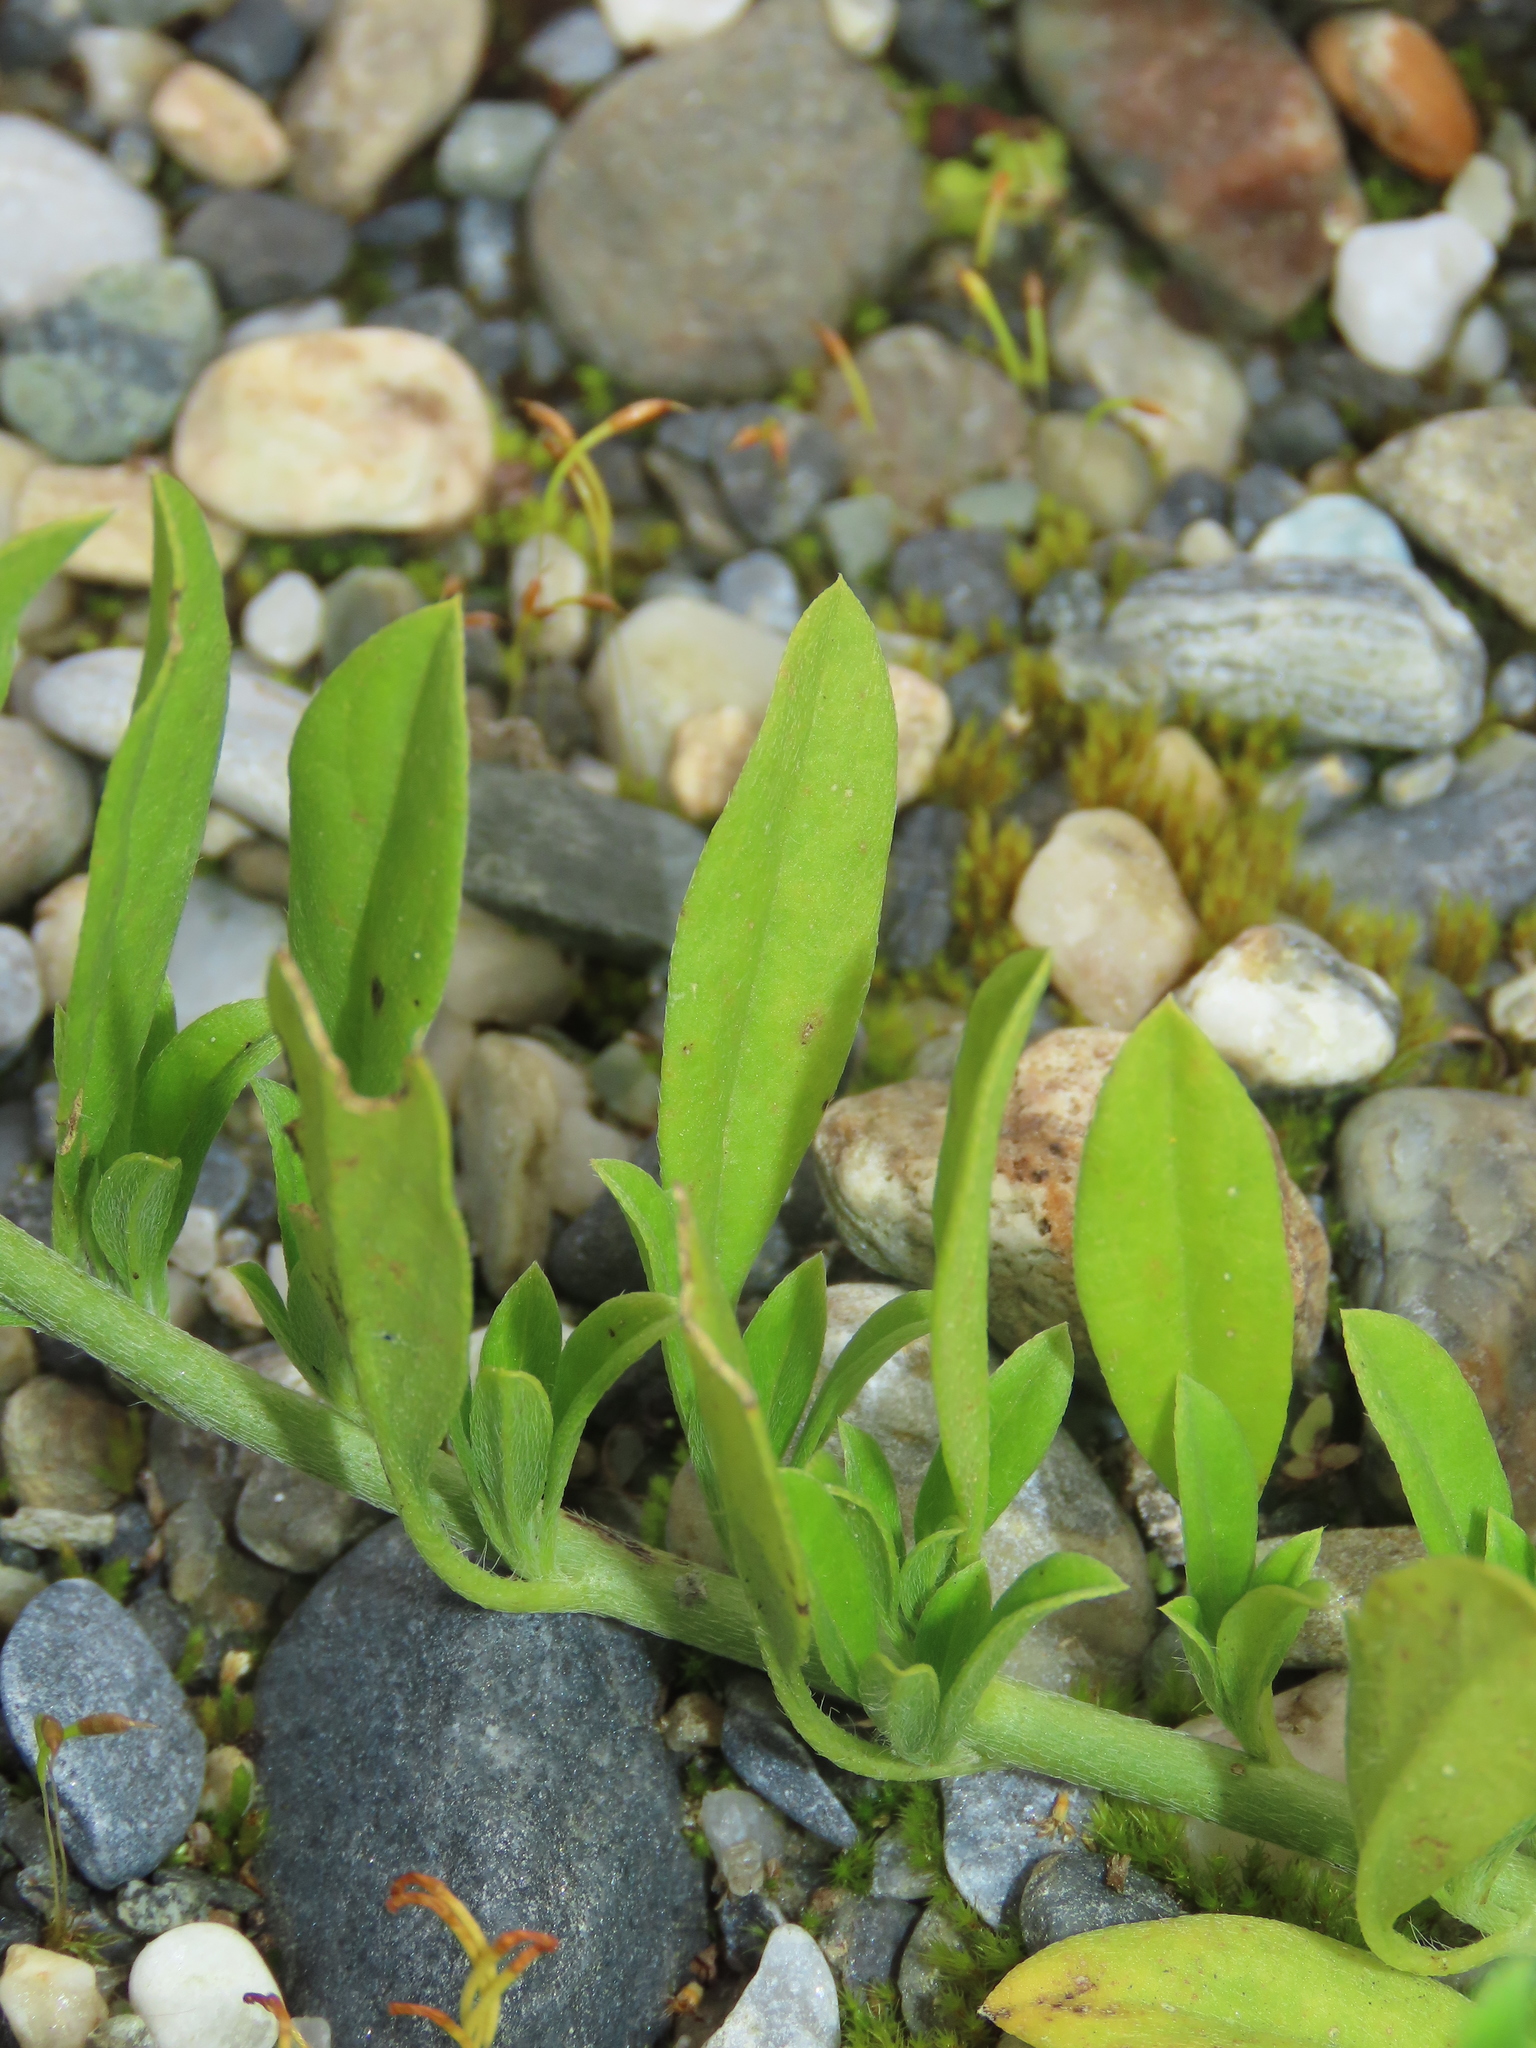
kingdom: Plantae
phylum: Tracheophyta
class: Magnoliopsida
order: Boraginales
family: Heliotropiaceae
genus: Euploca
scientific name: Euploca procumbens
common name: Fourspike heliotrope
